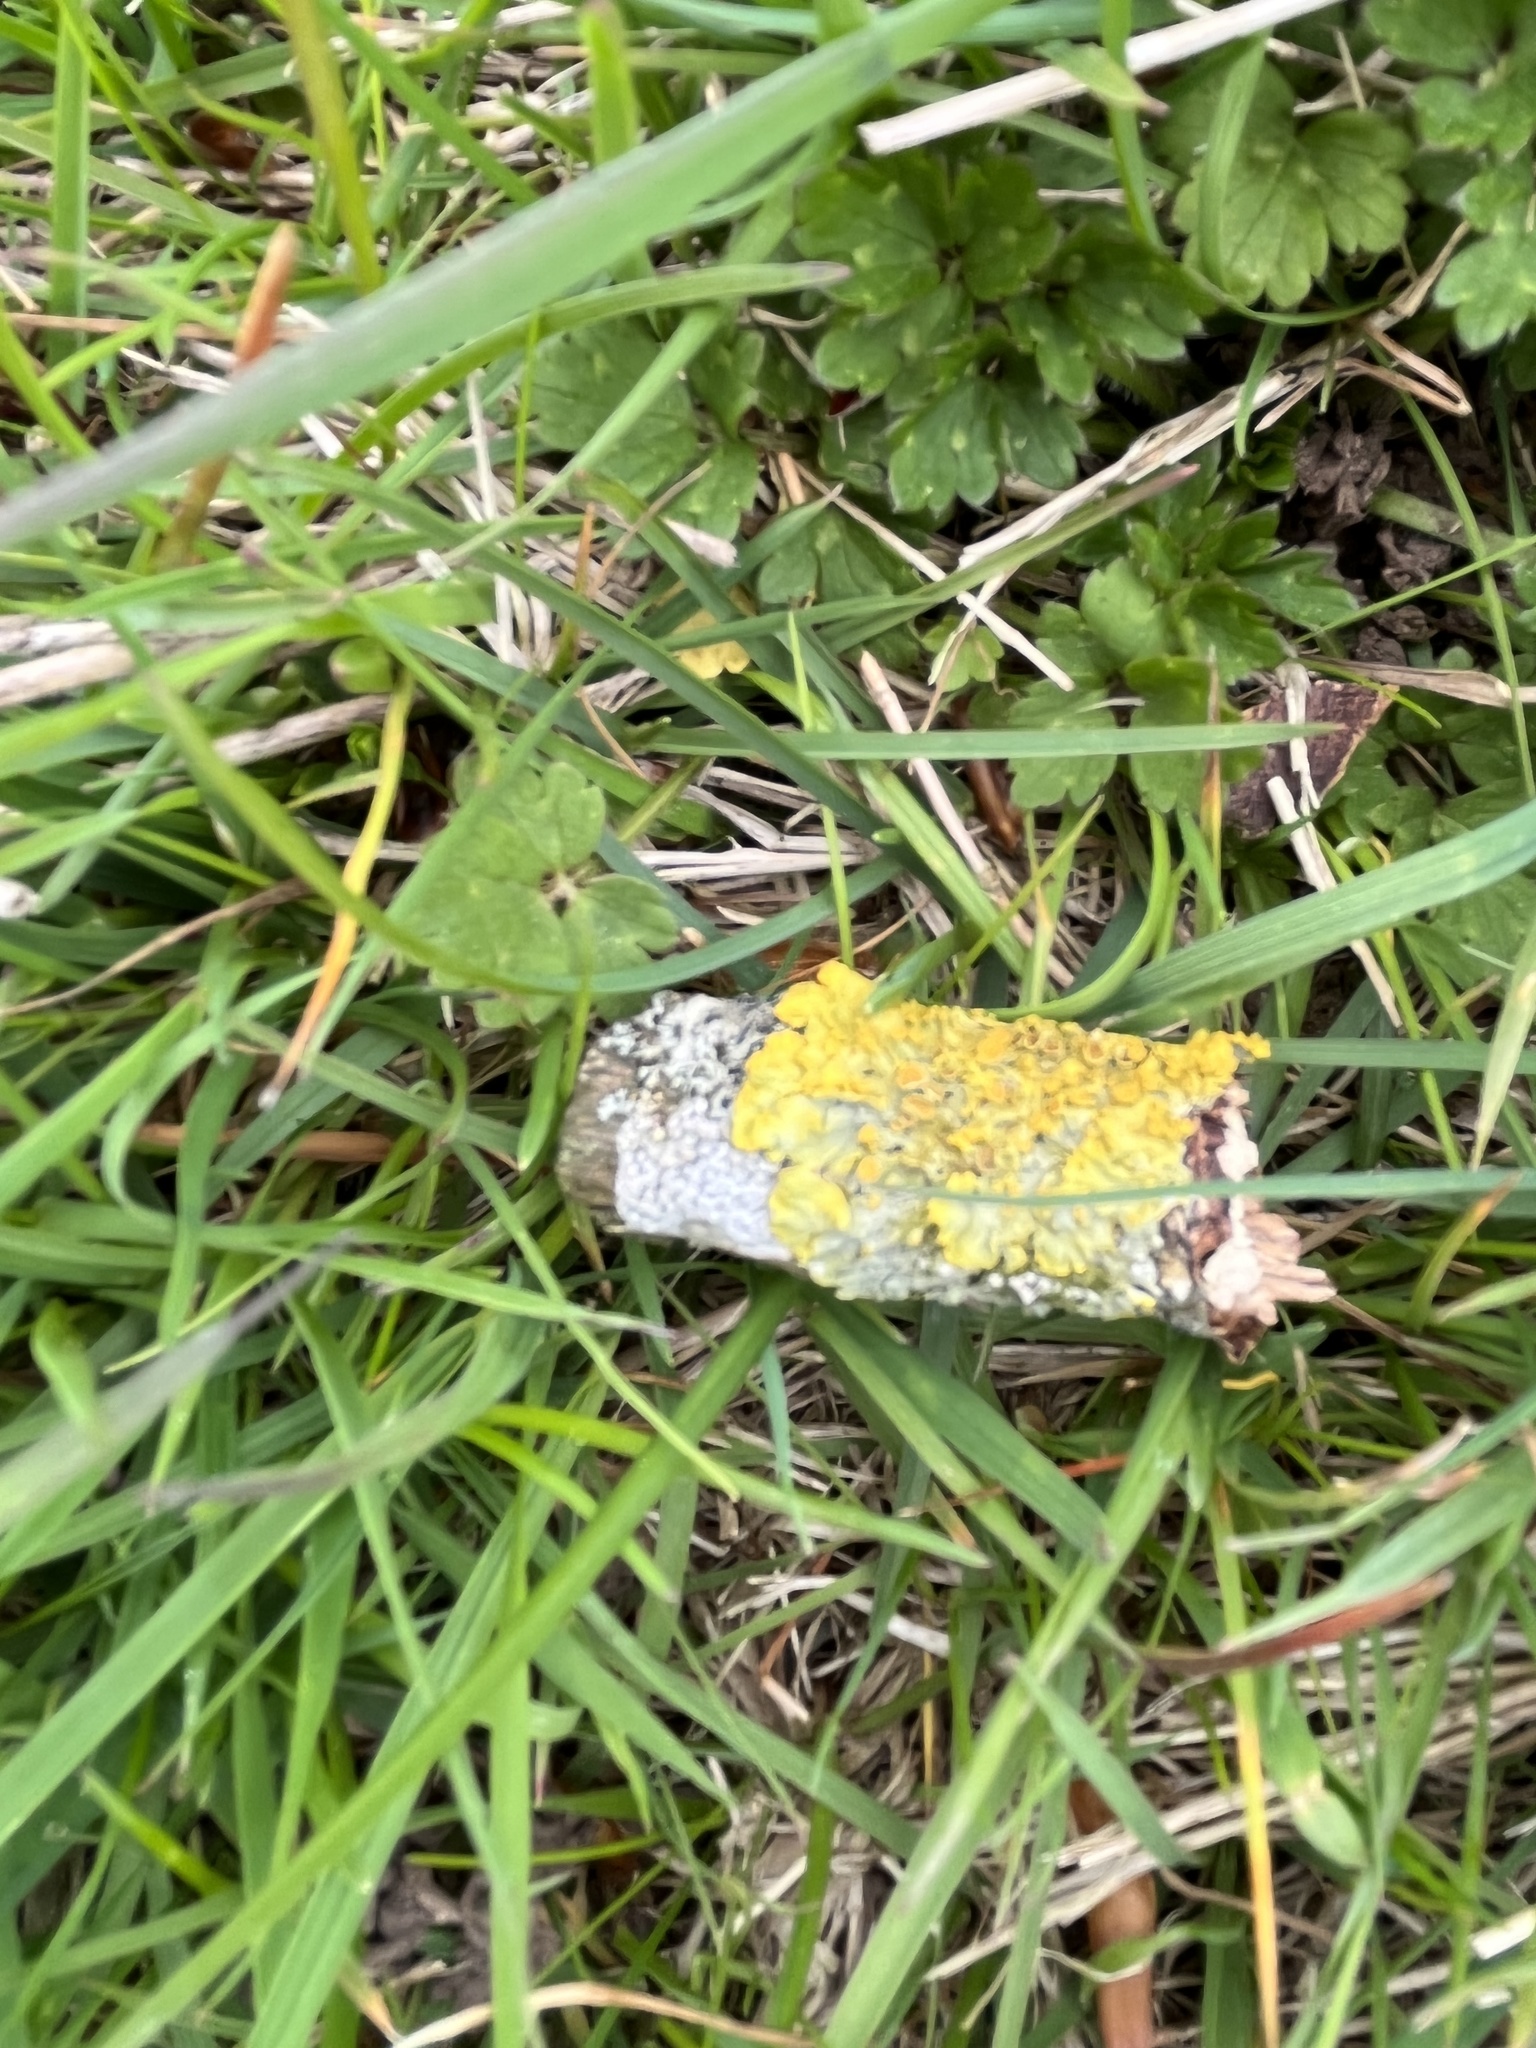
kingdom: Fungi
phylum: Ascomycota
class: Lecanoromycetes
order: Teloschistales
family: Teloschistaceae
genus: Xanthoria
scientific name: Xanthoria parietina
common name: Common orange lichen
